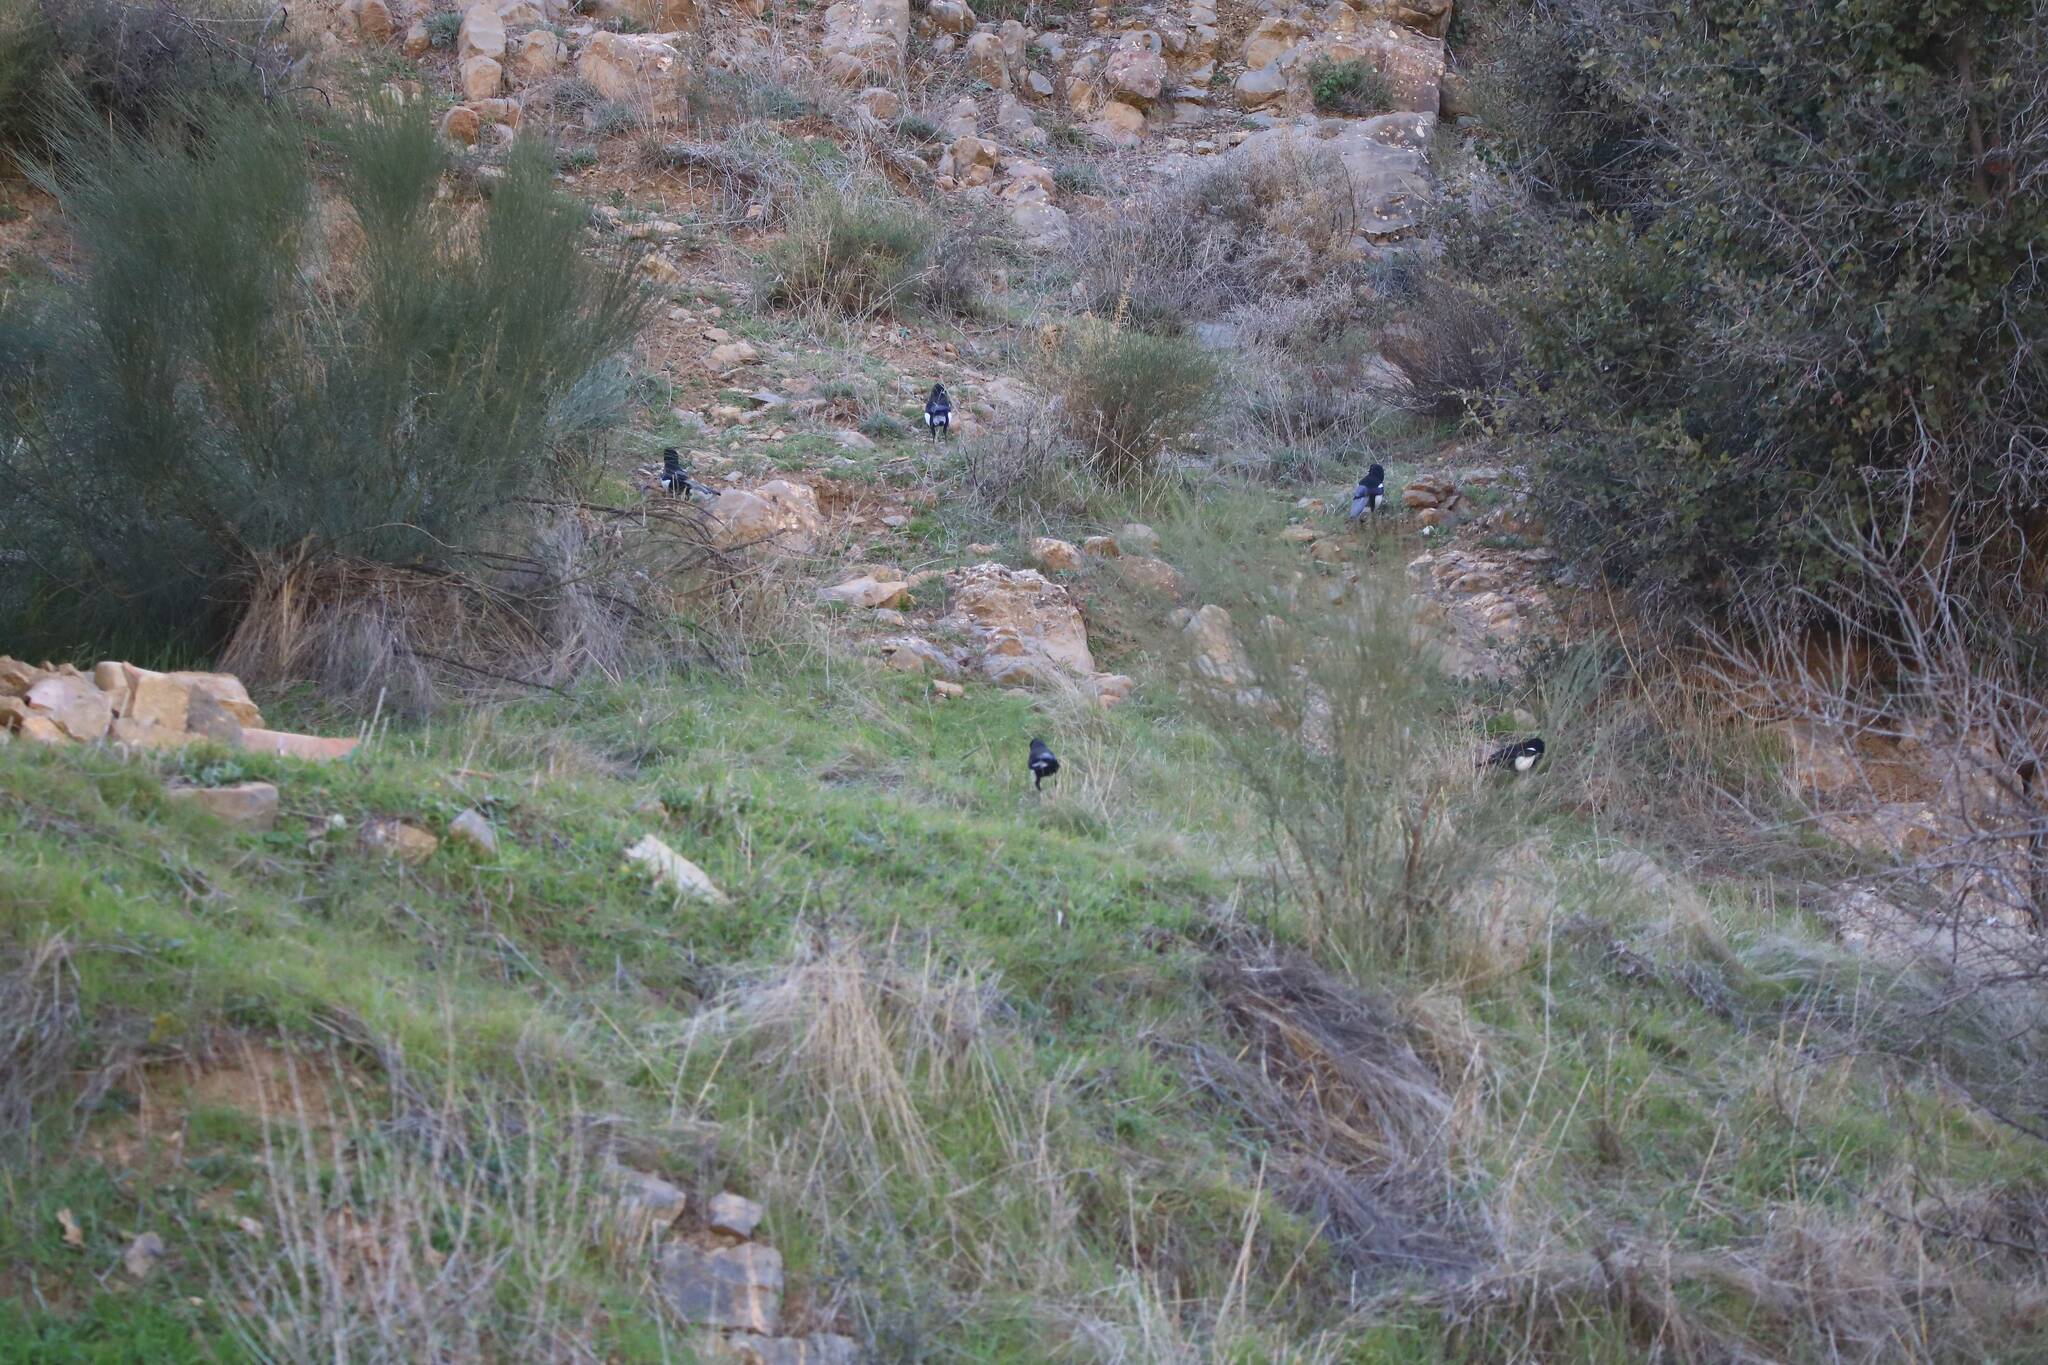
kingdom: Animalia
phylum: Chordata
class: Aves
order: Passeriformes
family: Corvidae
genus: Pica
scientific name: Pica mauritanica
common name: Maghreb magpie
